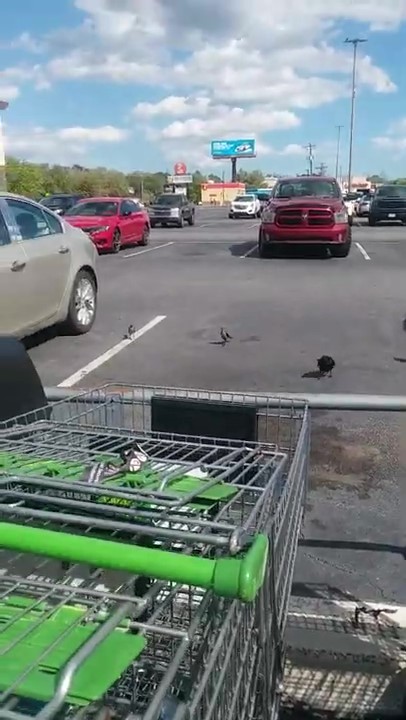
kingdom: Animalia
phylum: Chordata
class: Aves
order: Passeriformes
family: Icteridae
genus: Quiscalus
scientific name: Quiscalus major
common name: Boat-tailed grackle
